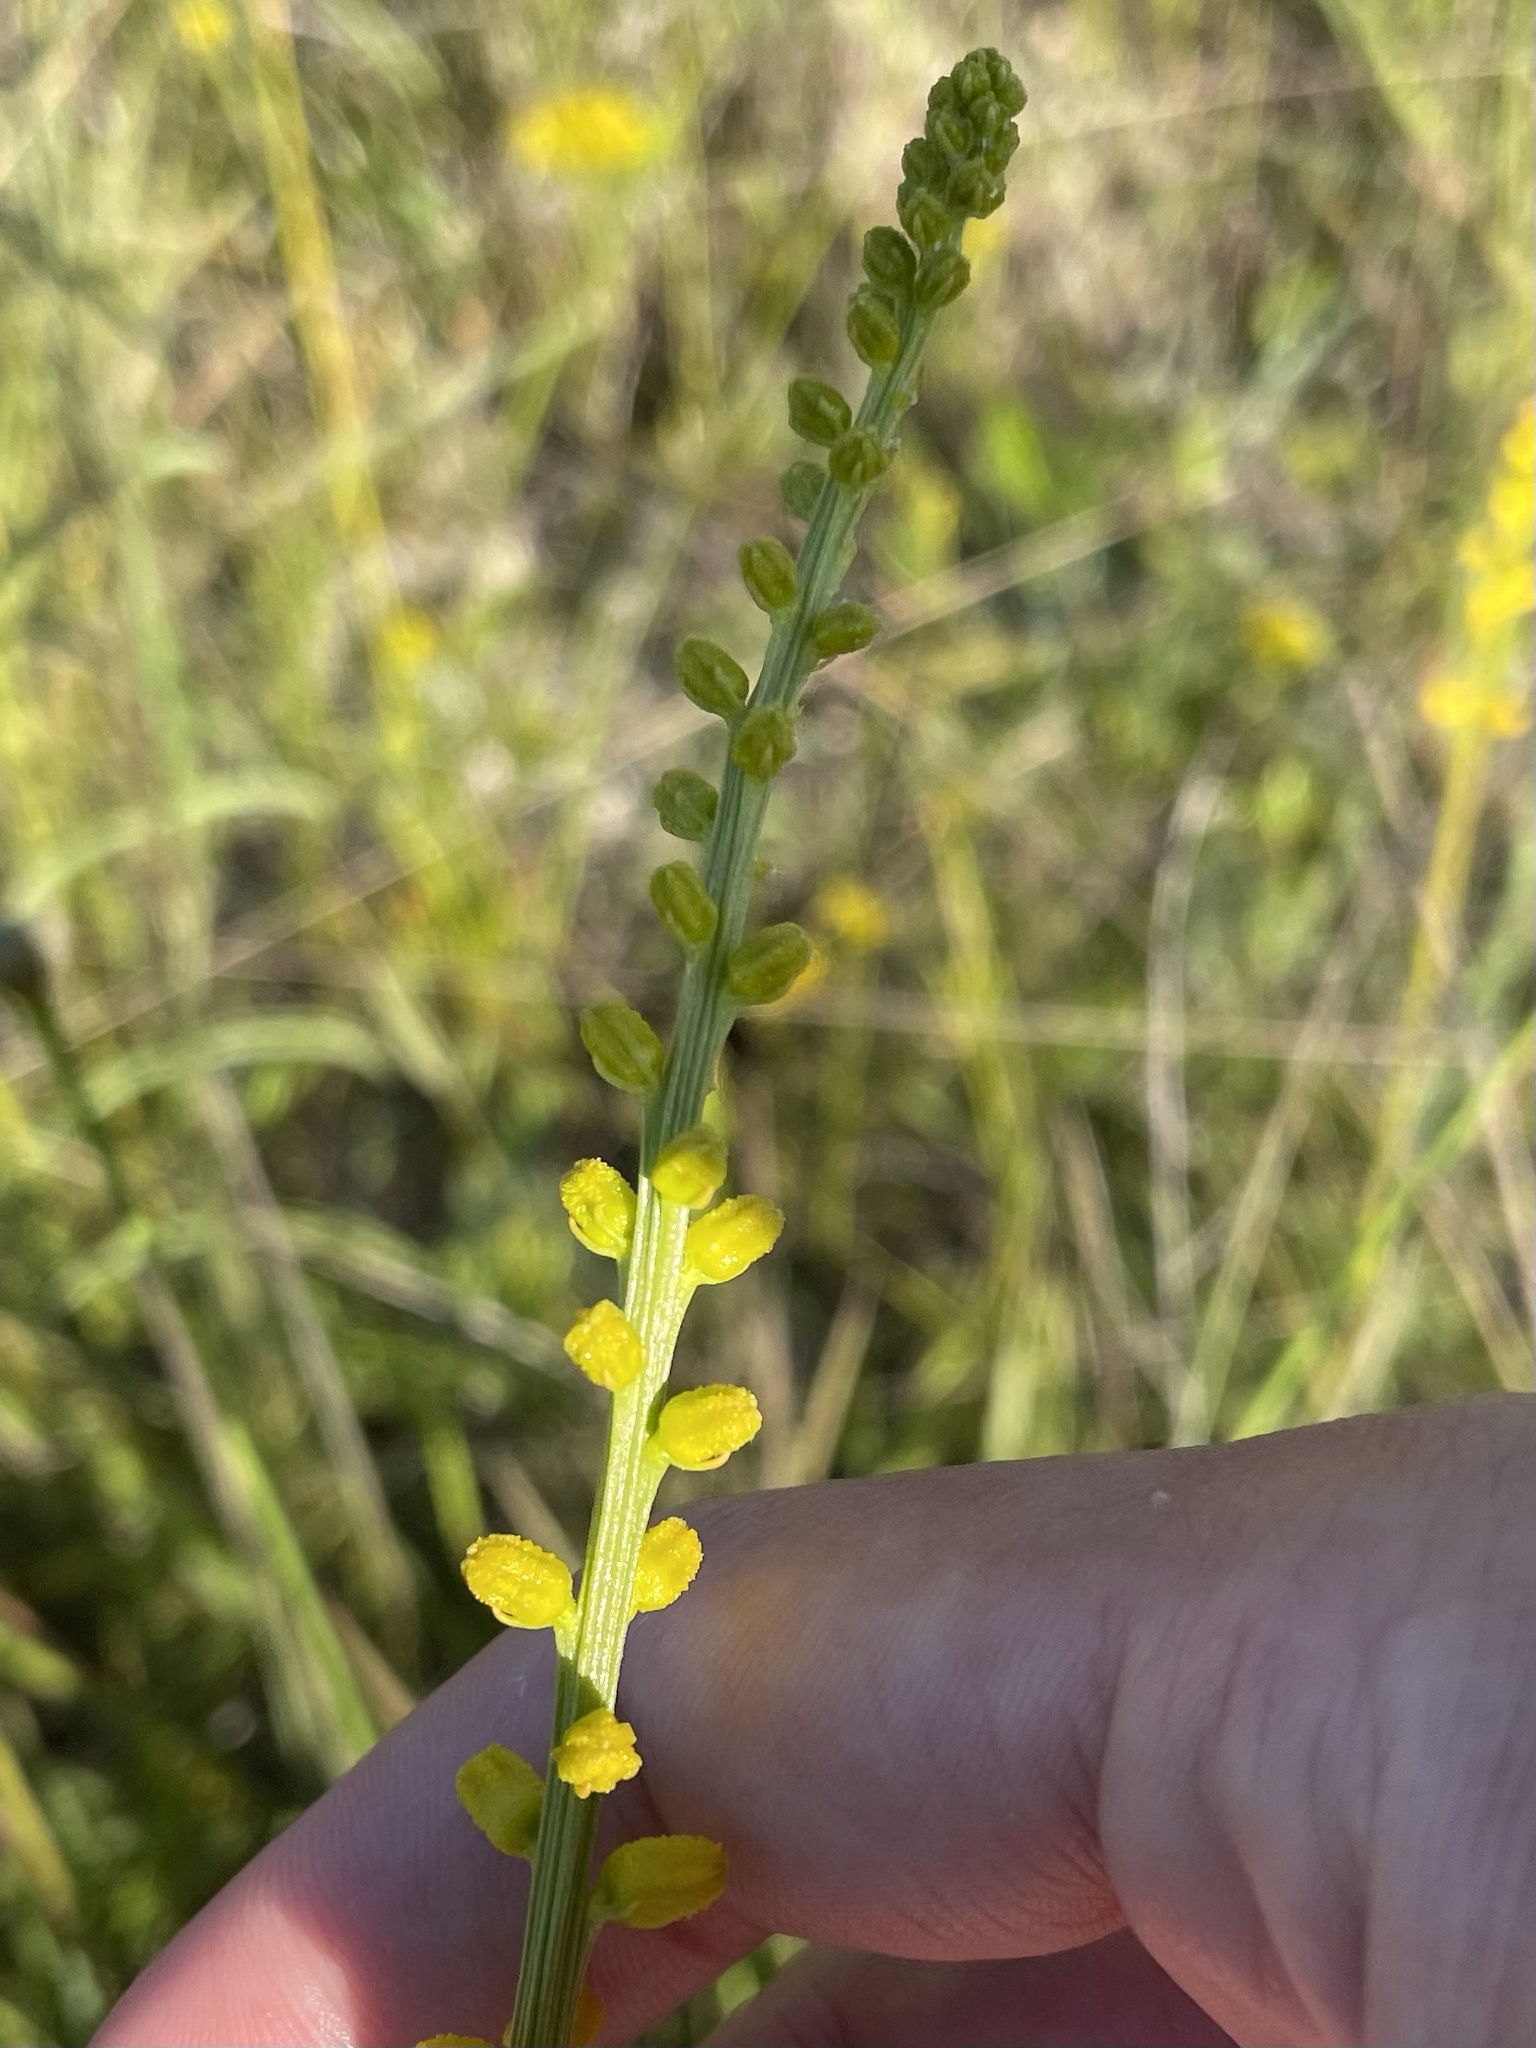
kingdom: Plantae
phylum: Tracheophyta
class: Liliopsida
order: Dioscoreales
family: Nartheciaceae
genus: Aletris
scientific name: Aletris aurea
